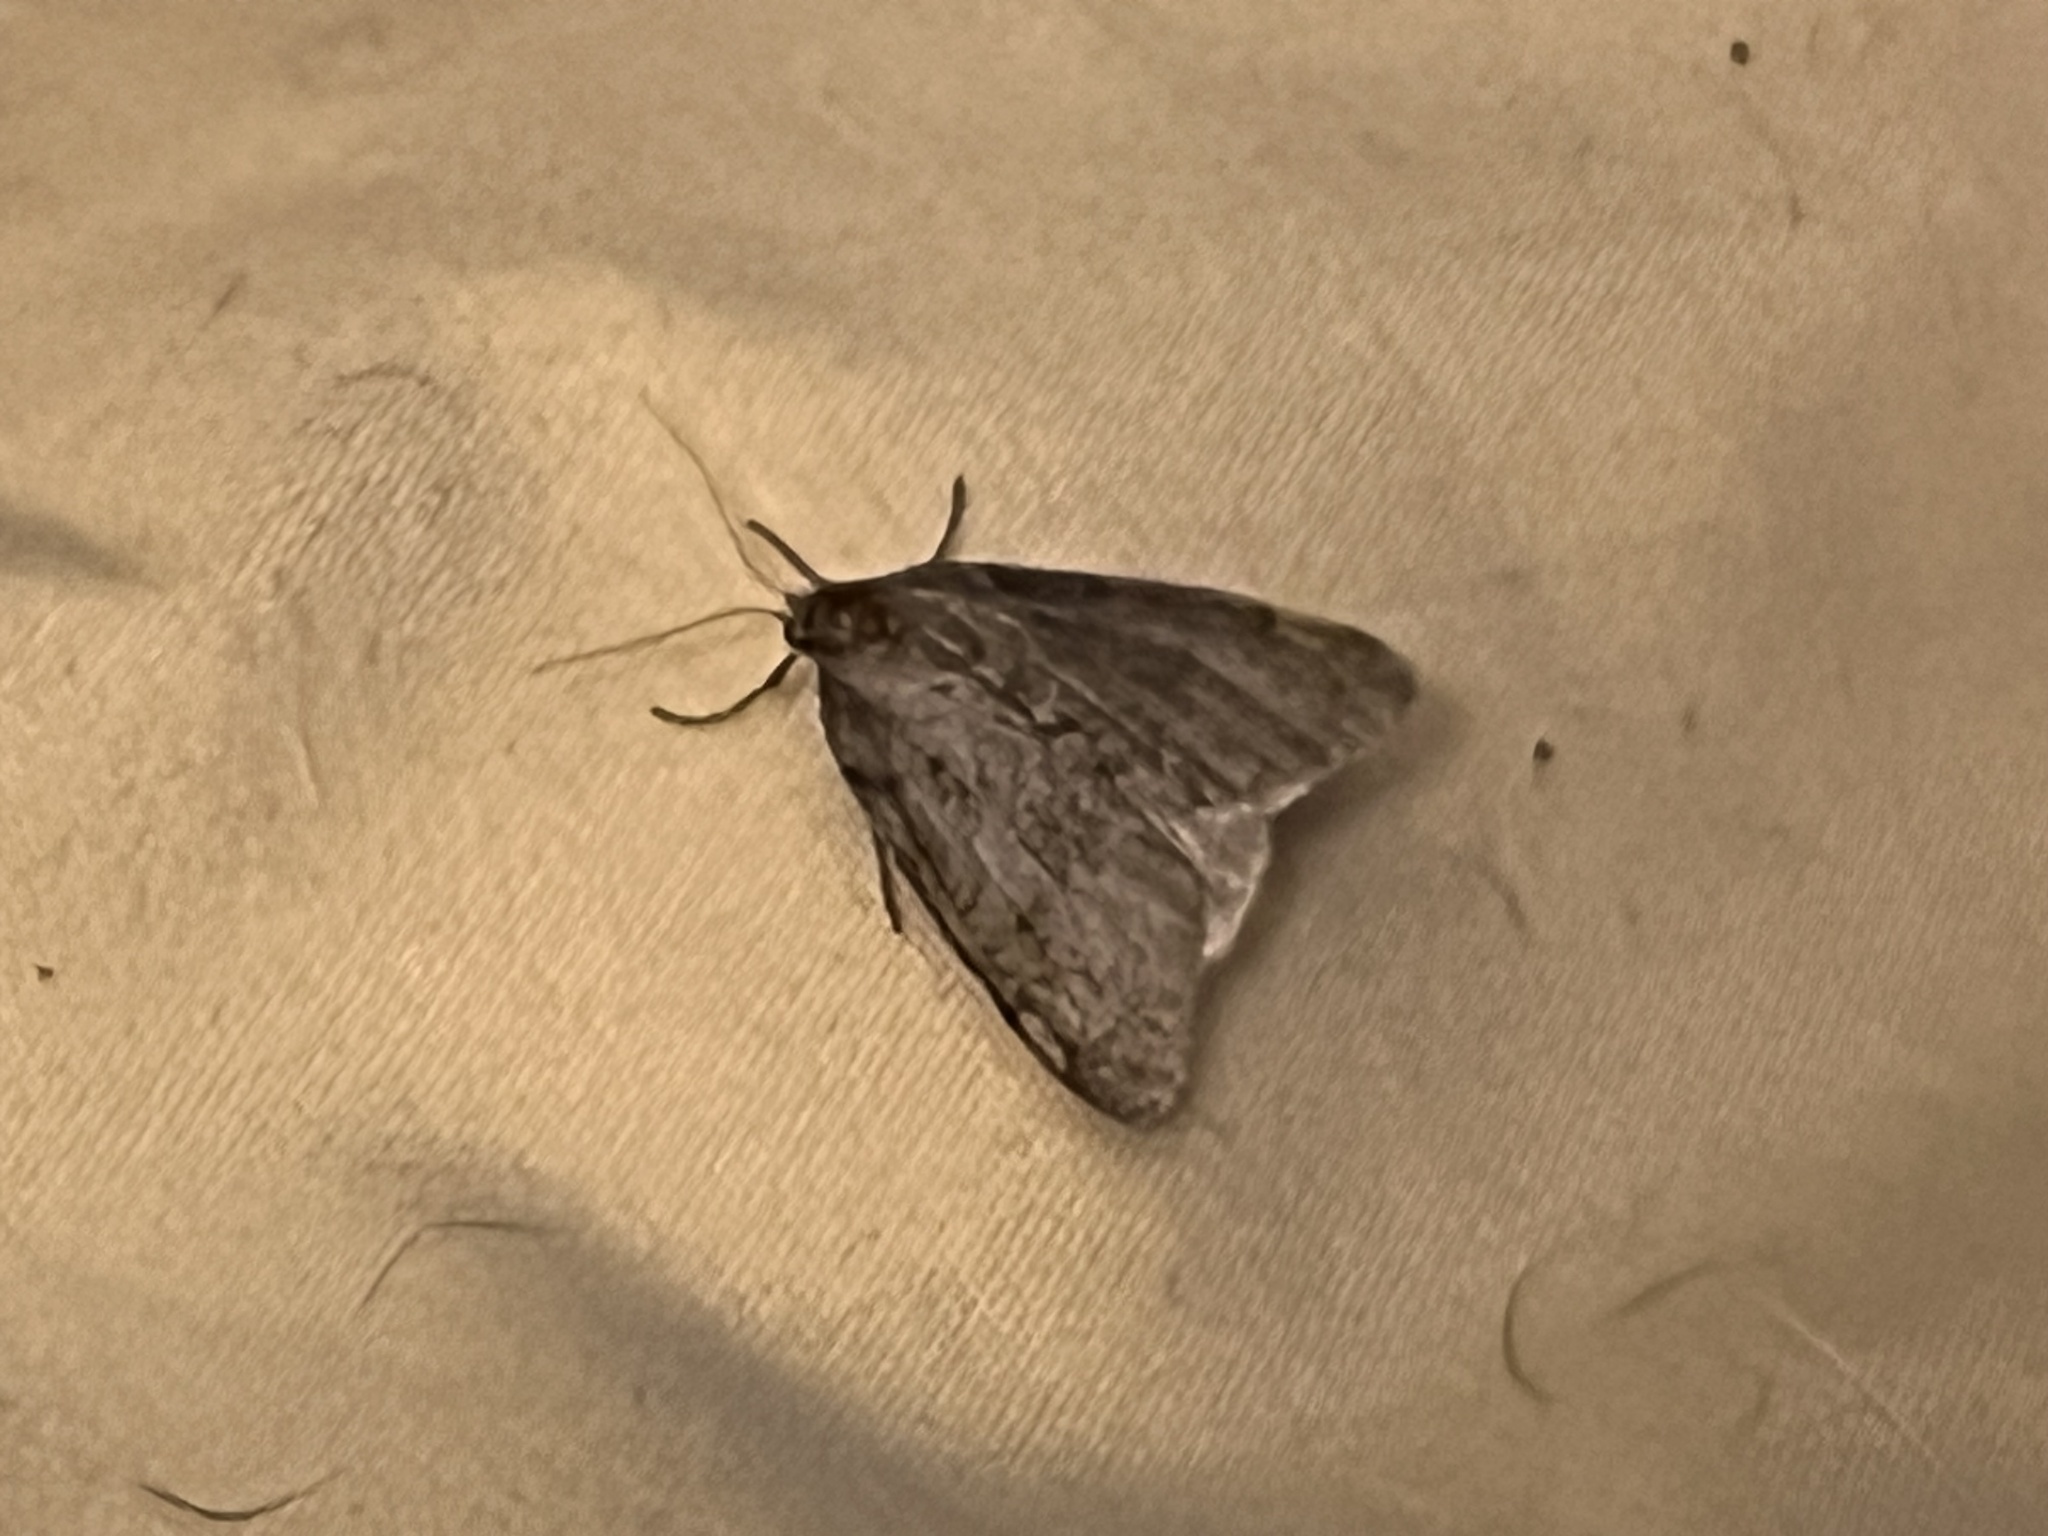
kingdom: Animalia
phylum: Arthropoda
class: Insecta
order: Lepidoptera
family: Geometridae
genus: Paleacrita
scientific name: Paleacrita vernata
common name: Spring cankerworm
